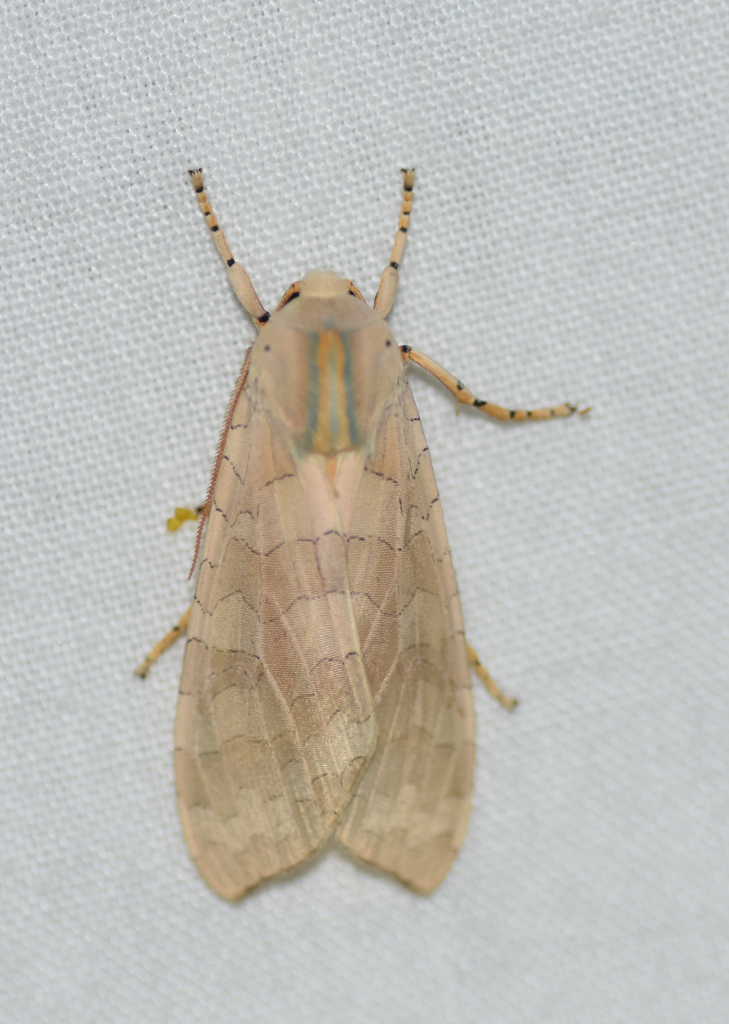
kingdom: Animalia
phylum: Arthropoda
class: Insecta
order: Lepidoptera
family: Erebidae
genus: Halysidota
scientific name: Halysidota tessellaris
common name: Banded tussock moth
